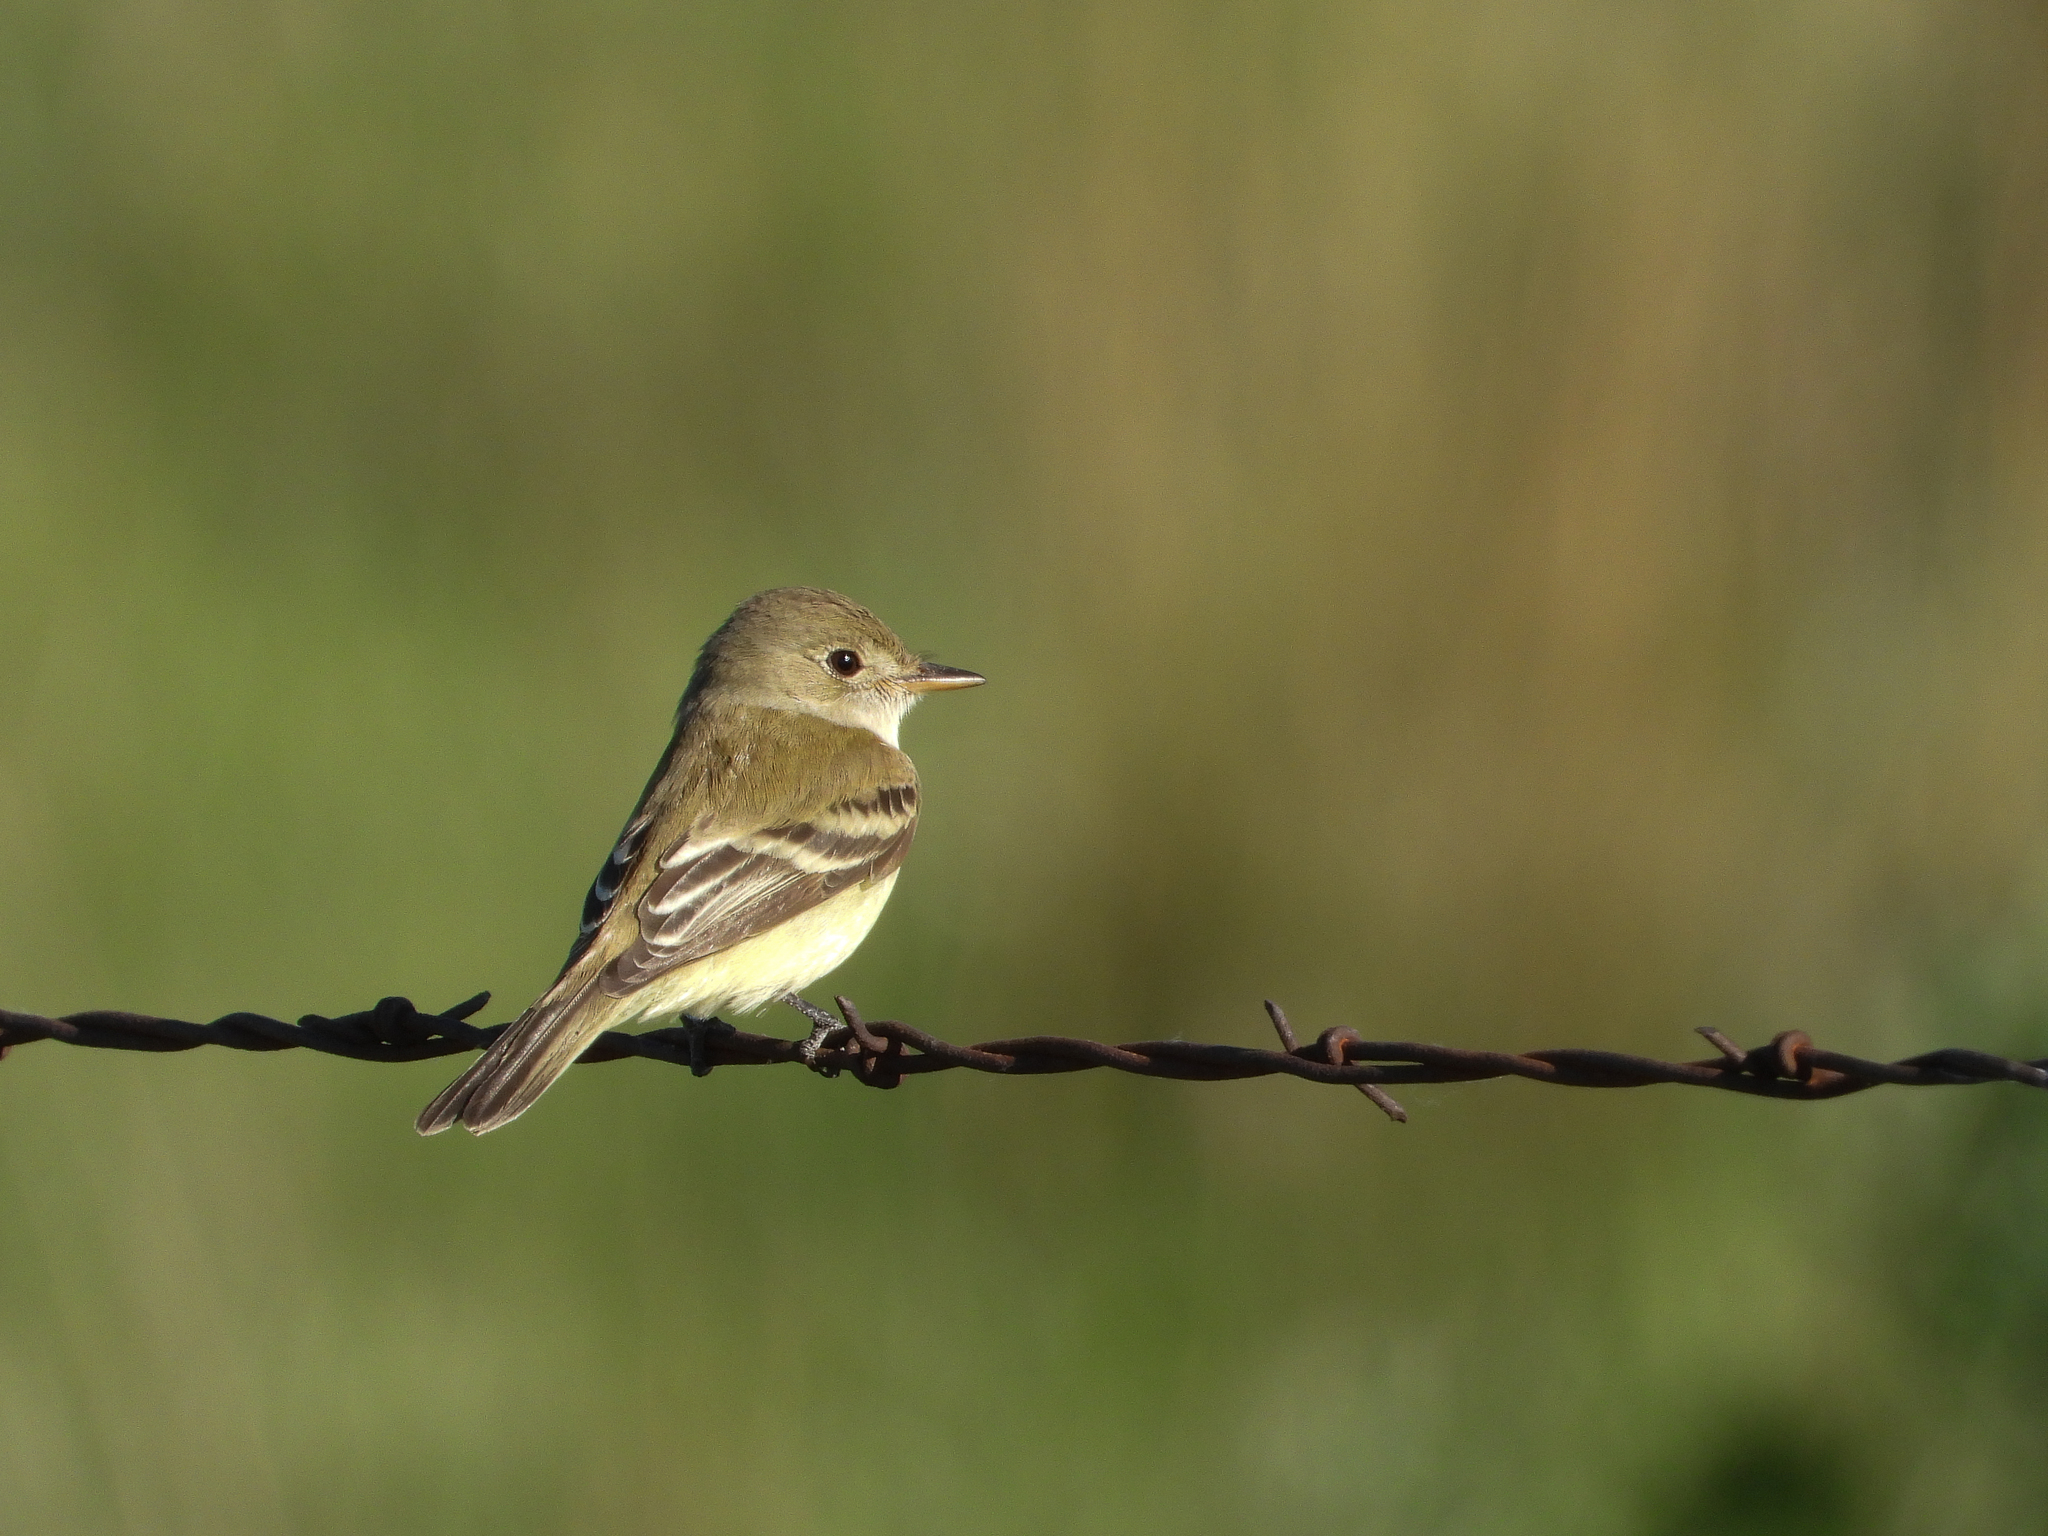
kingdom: Animalia
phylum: Chordata
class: Aves
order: Passeriformes
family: Tyrannidae
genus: Empidonax
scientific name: Empidonax traillii
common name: Willow flycatcher
